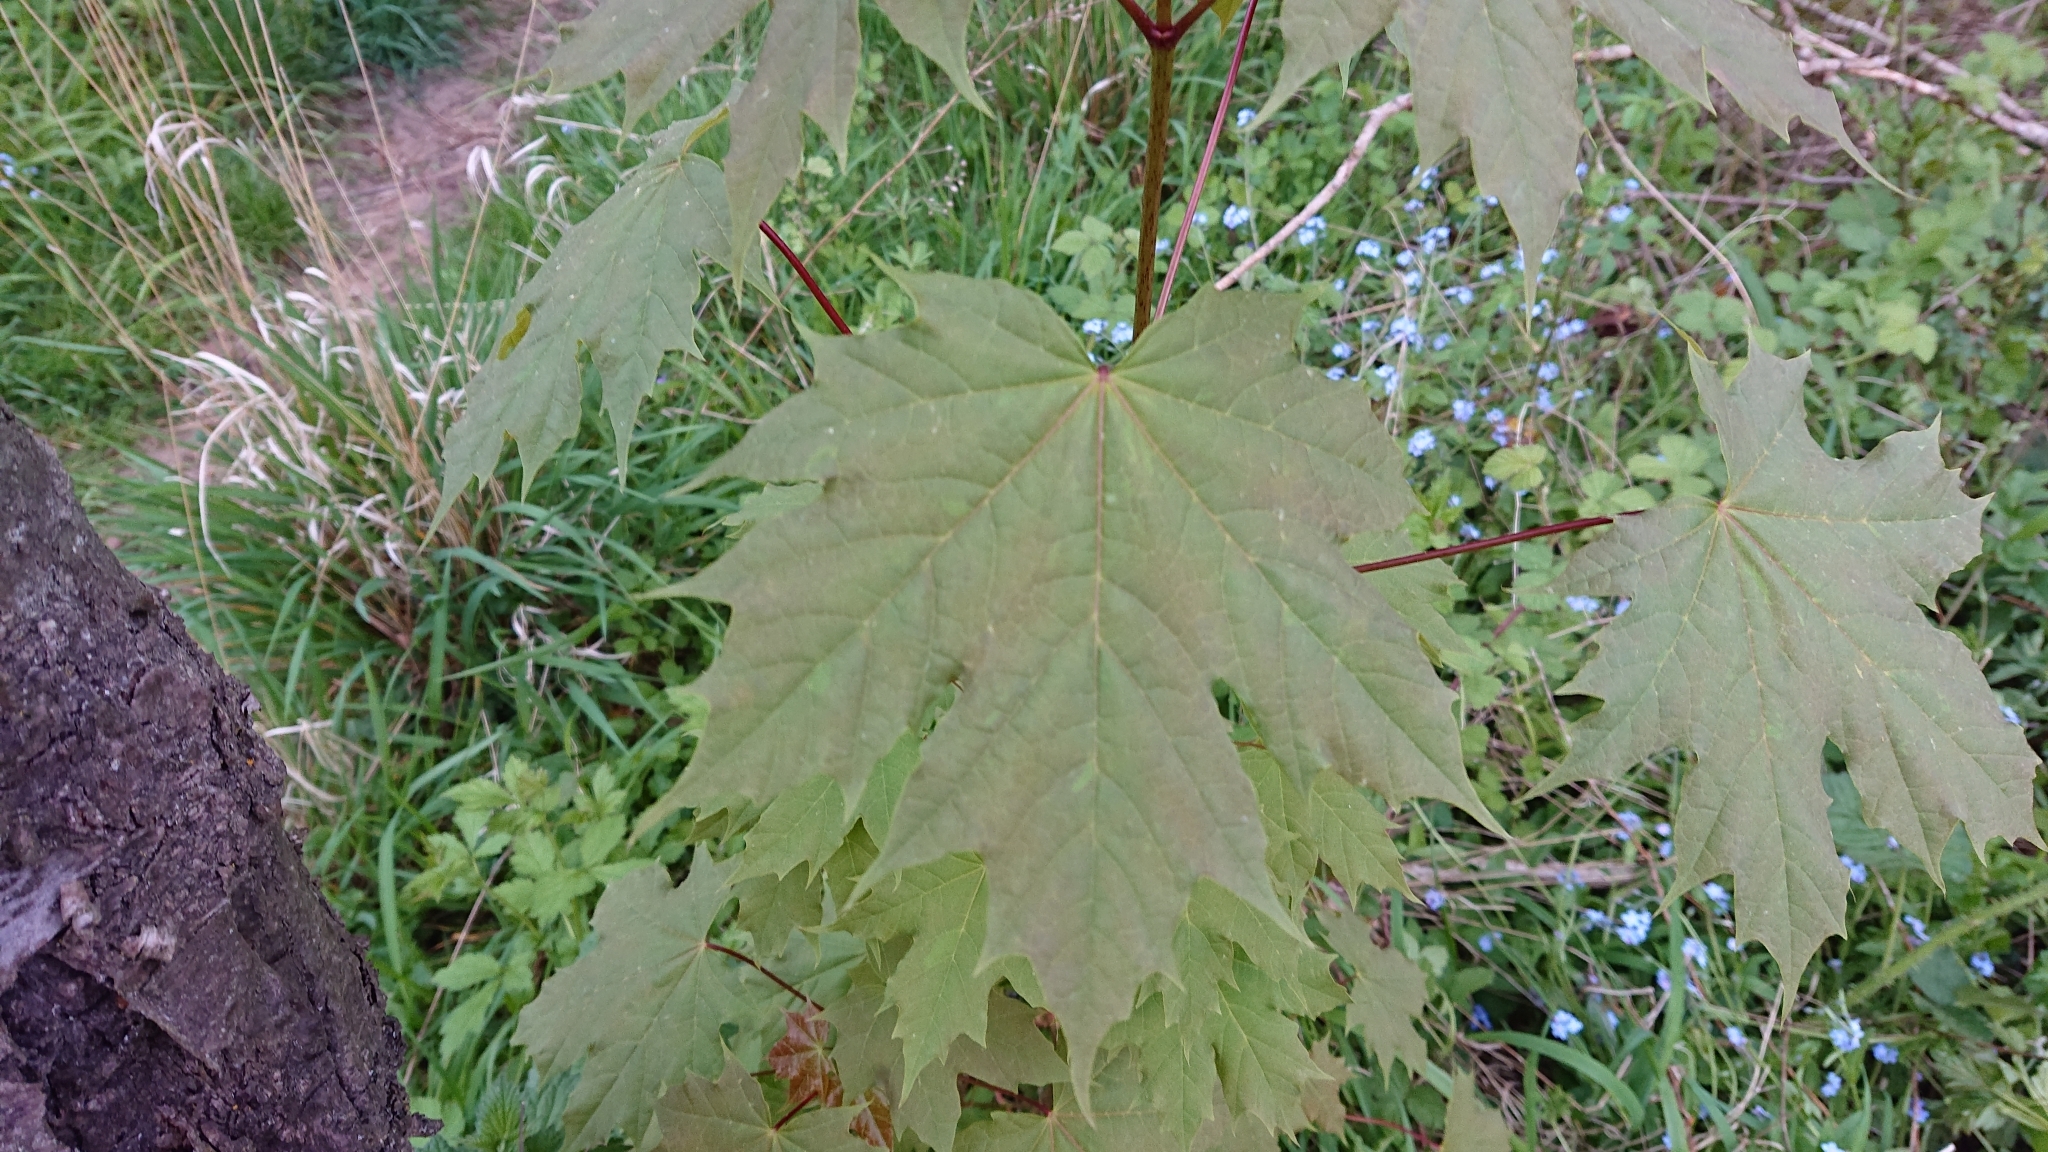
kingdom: Plantae
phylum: Tracheophyta
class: Magnoliopsida
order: Sapindales
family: Sapindaceae
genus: Acer
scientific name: Acer platanoides
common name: Norway maple
